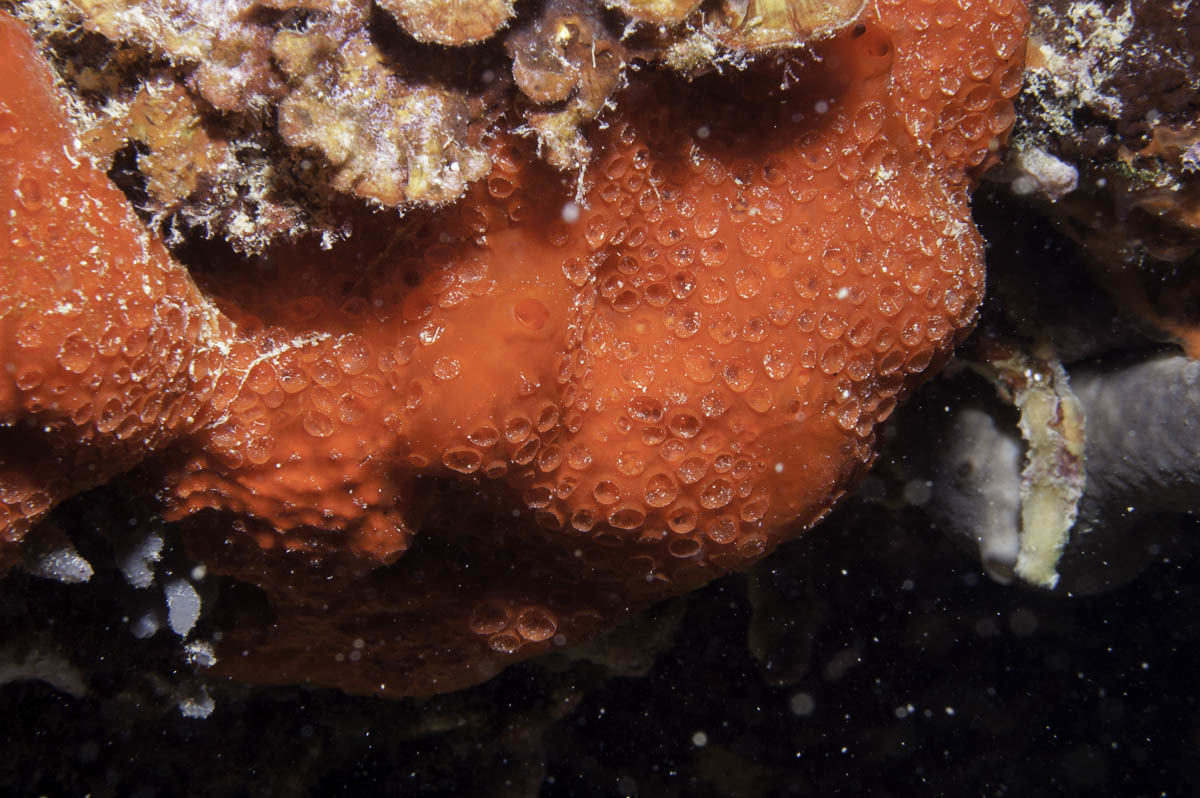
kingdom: Animalia
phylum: Porifera
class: Demospongiae
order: Poecilosclerida
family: Hymedesmiidae
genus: Phorbas
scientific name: Phorbas topsenti
